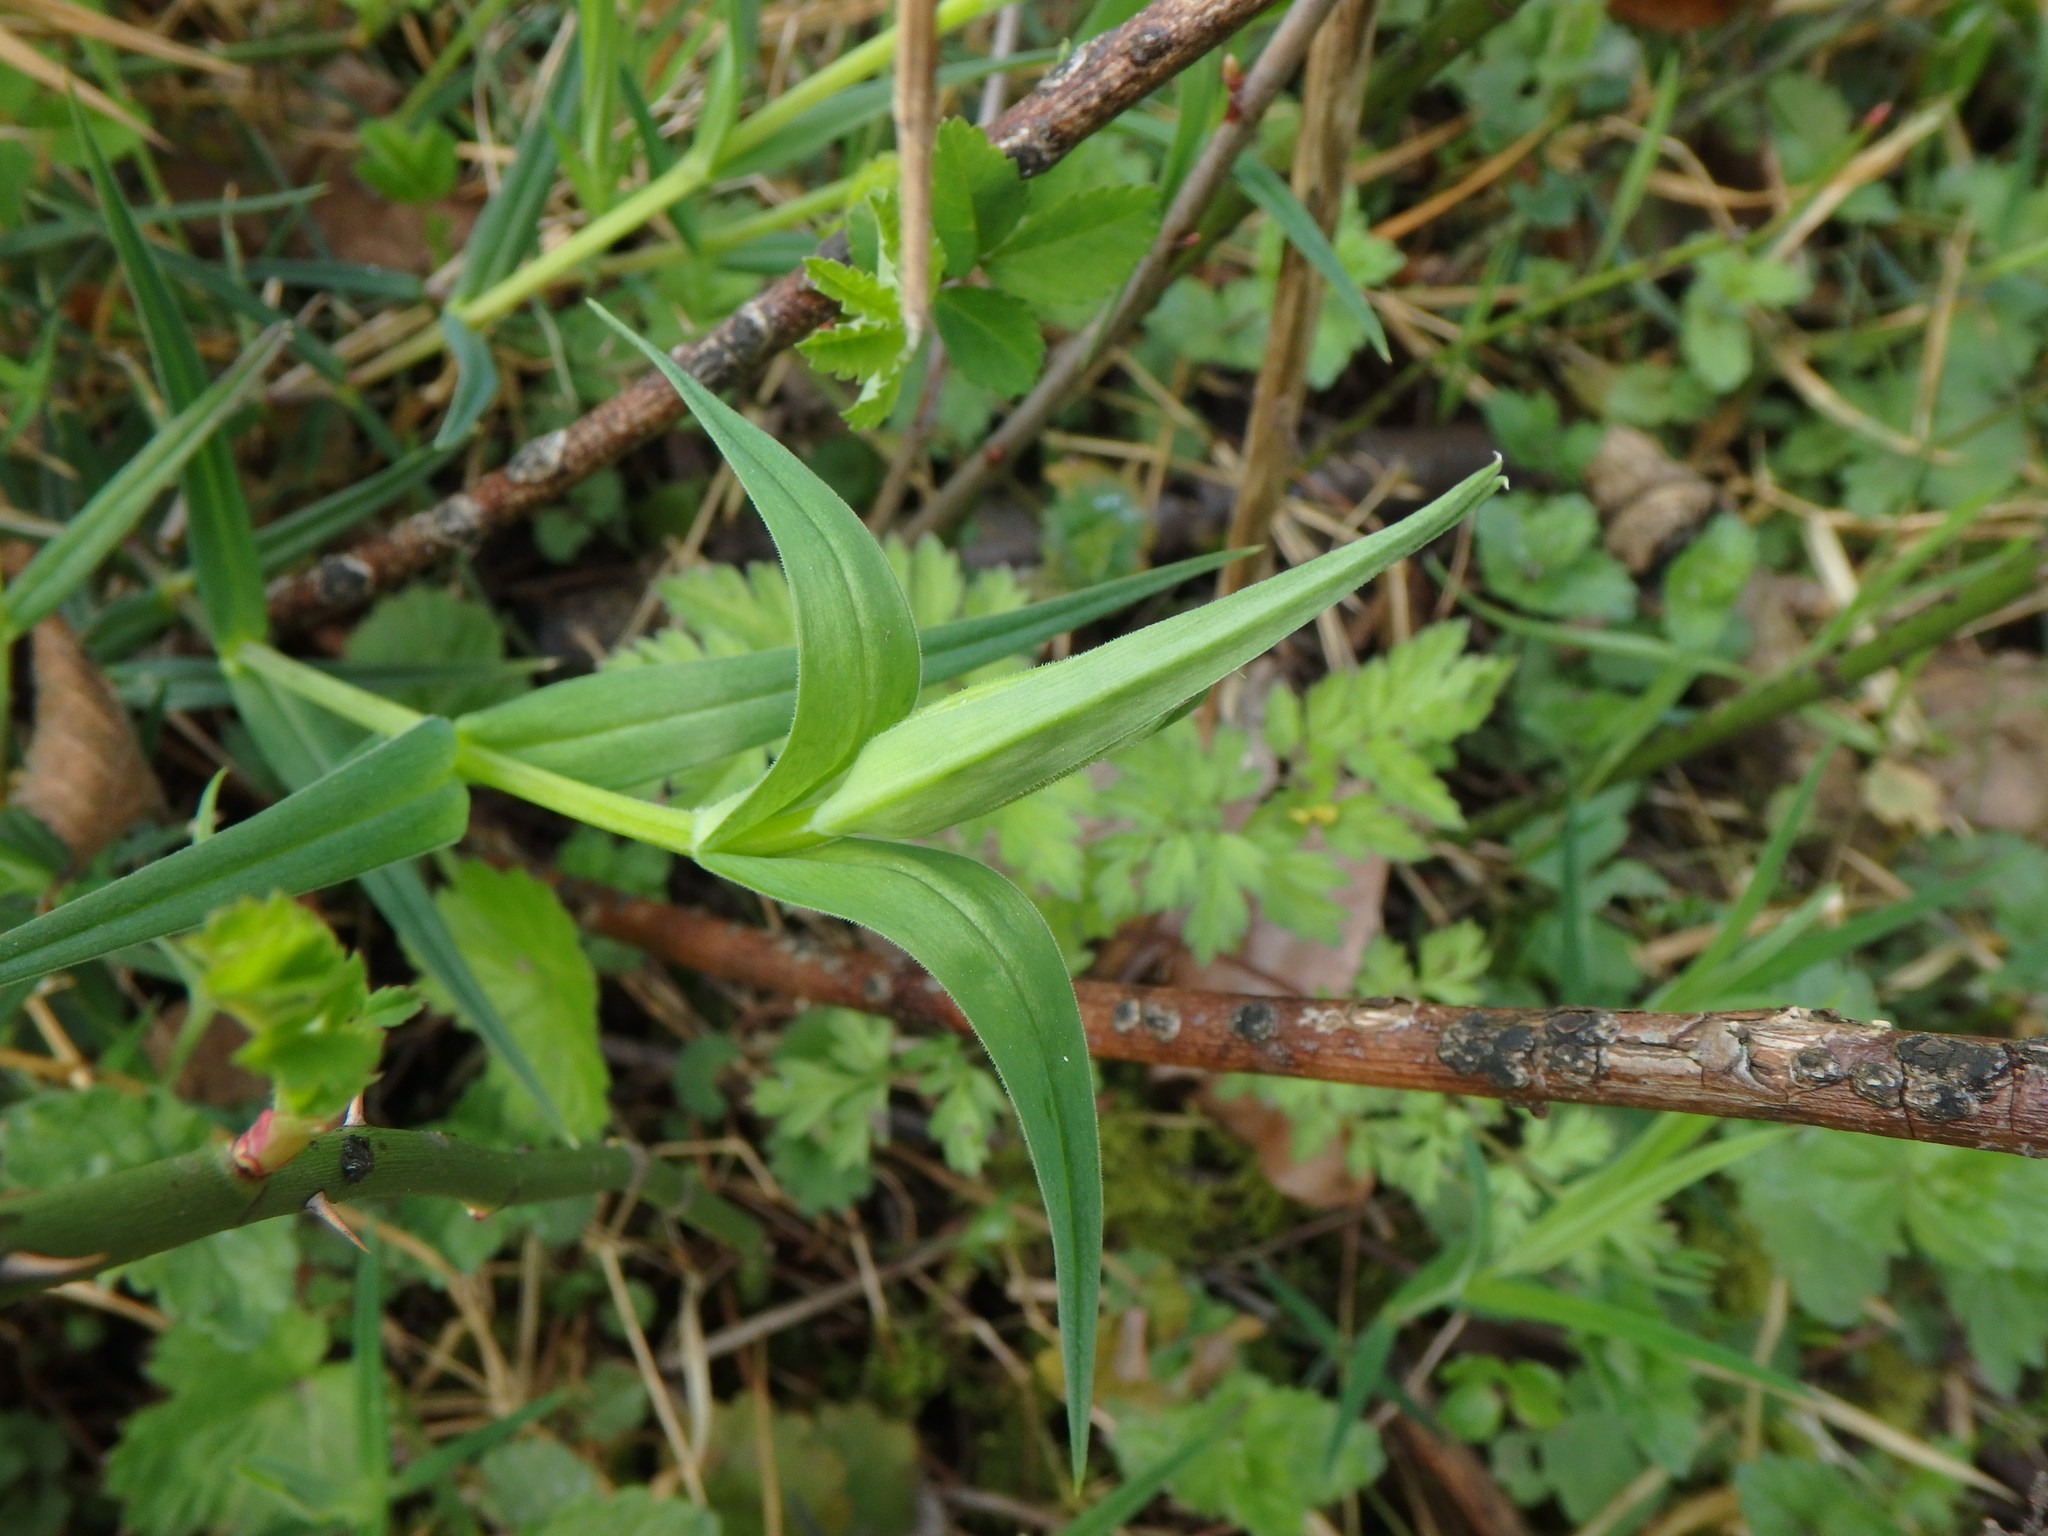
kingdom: Plantae
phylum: Tracheophyta
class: Magnoliopsida
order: Caryophyllales
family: Caryophyllaceae
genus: Rabelera
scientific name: Rabelera holostea
